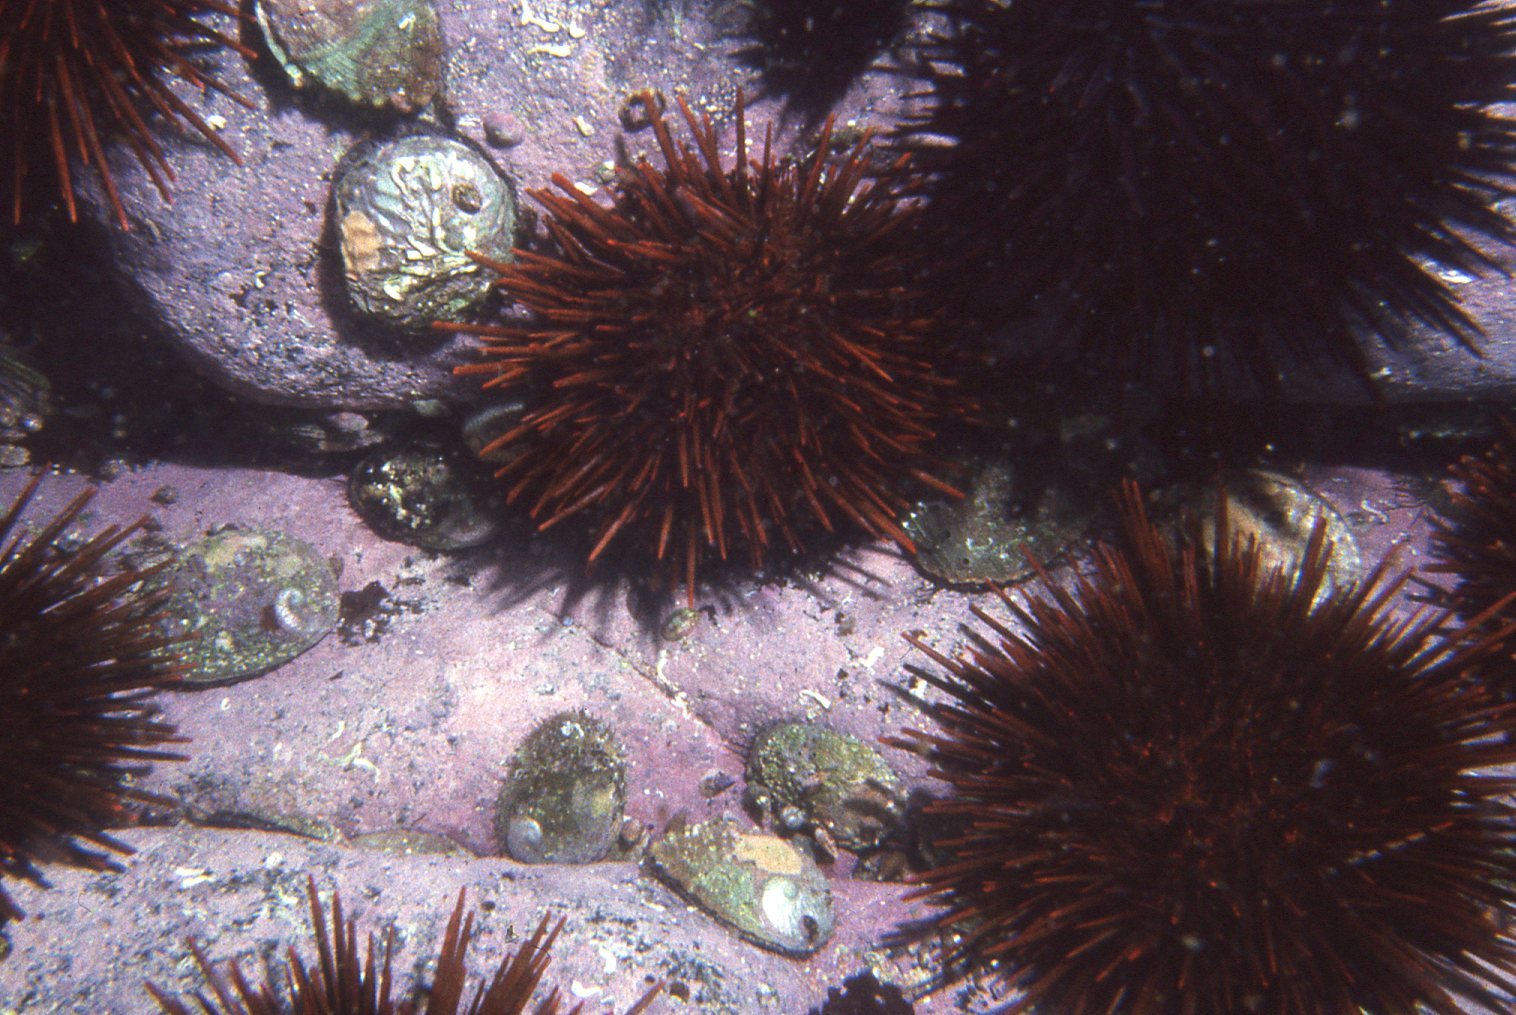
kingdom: Animalia
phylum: Mollusca
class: Gastropoda
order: Lepetellida
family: Haliotidae
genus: Haliotis
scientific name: Haliotis rubra
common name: Blacklip abalone
